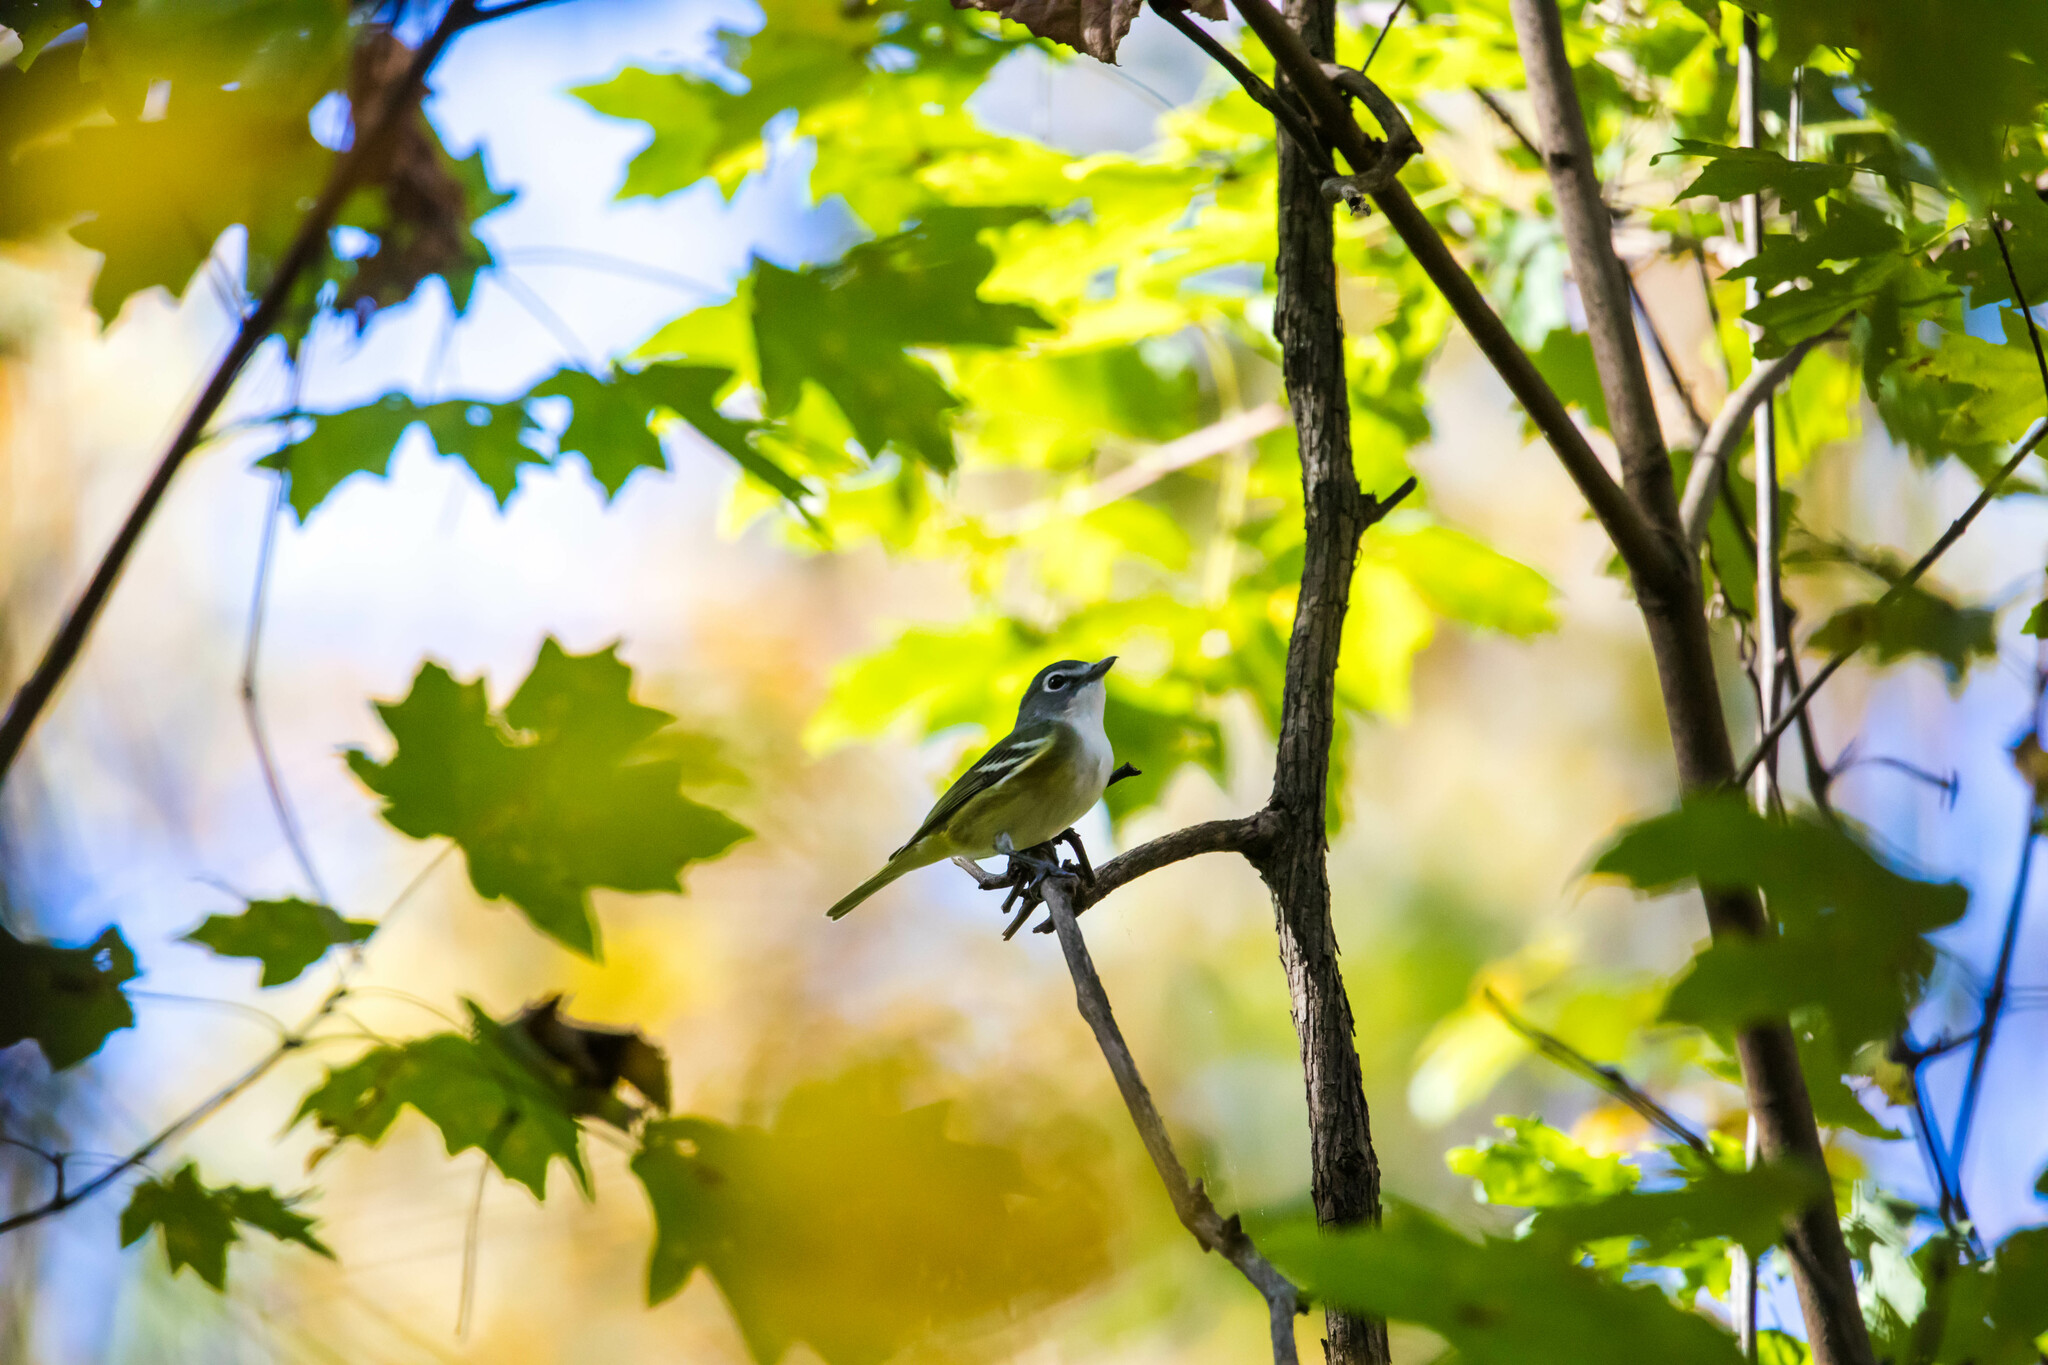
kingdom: Animalia
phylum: Chordata
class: Aves
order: Passeriformes
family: Vireonidae
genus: Vireo
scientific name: Vireo solitarius
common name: Blue-headed vireo
